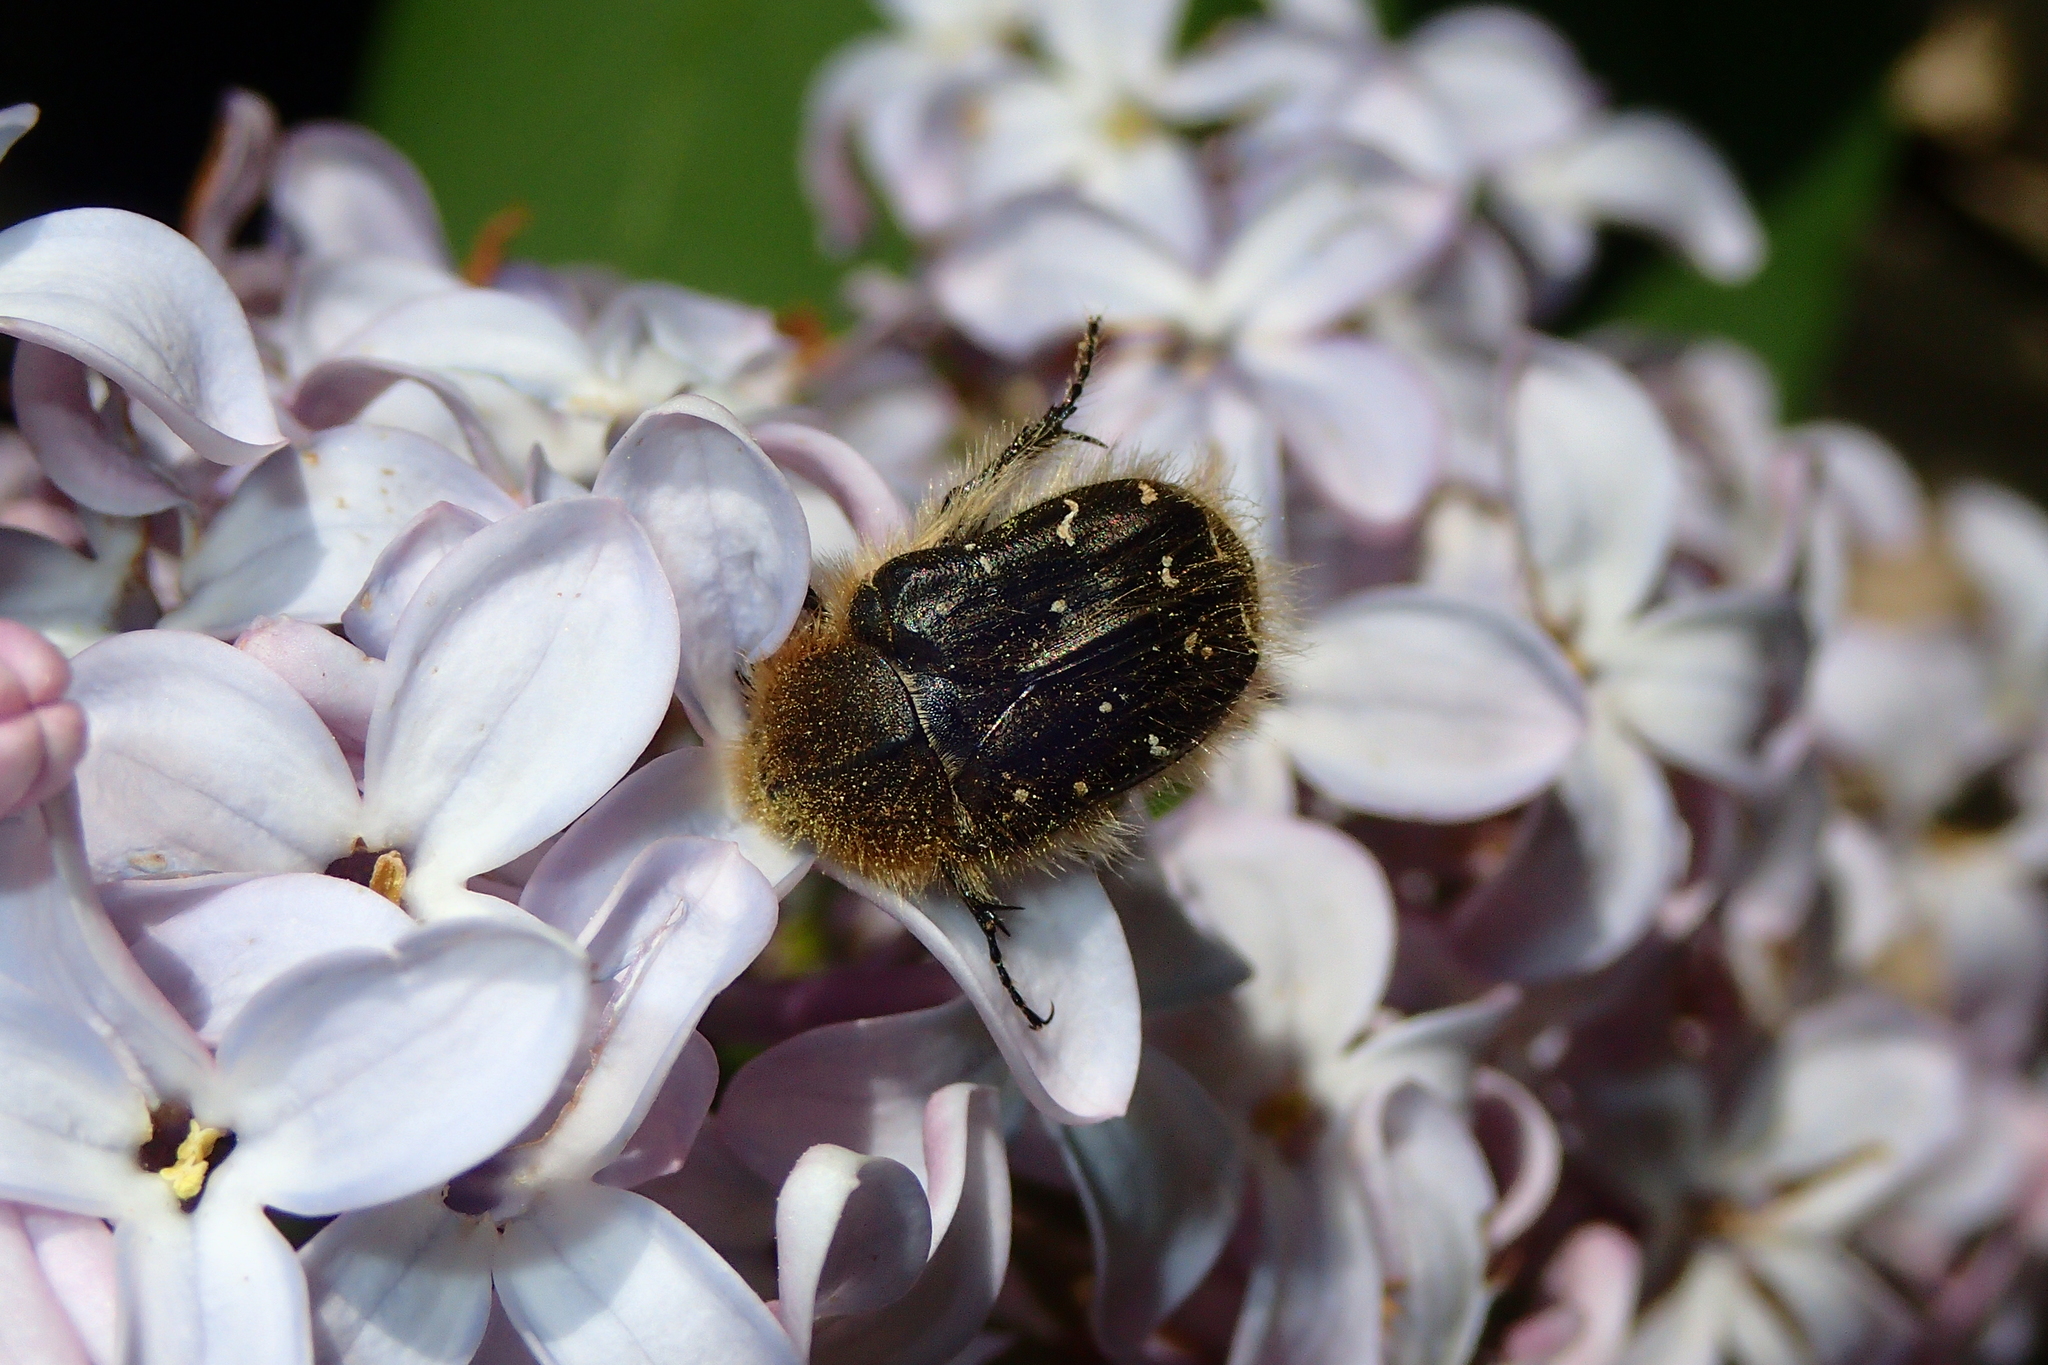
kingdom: Animalia
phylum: Arthropoda
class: Insecta
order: Coleoptera
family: Scarabaeidae
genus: Tropinota
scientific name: Tropinota hirta
